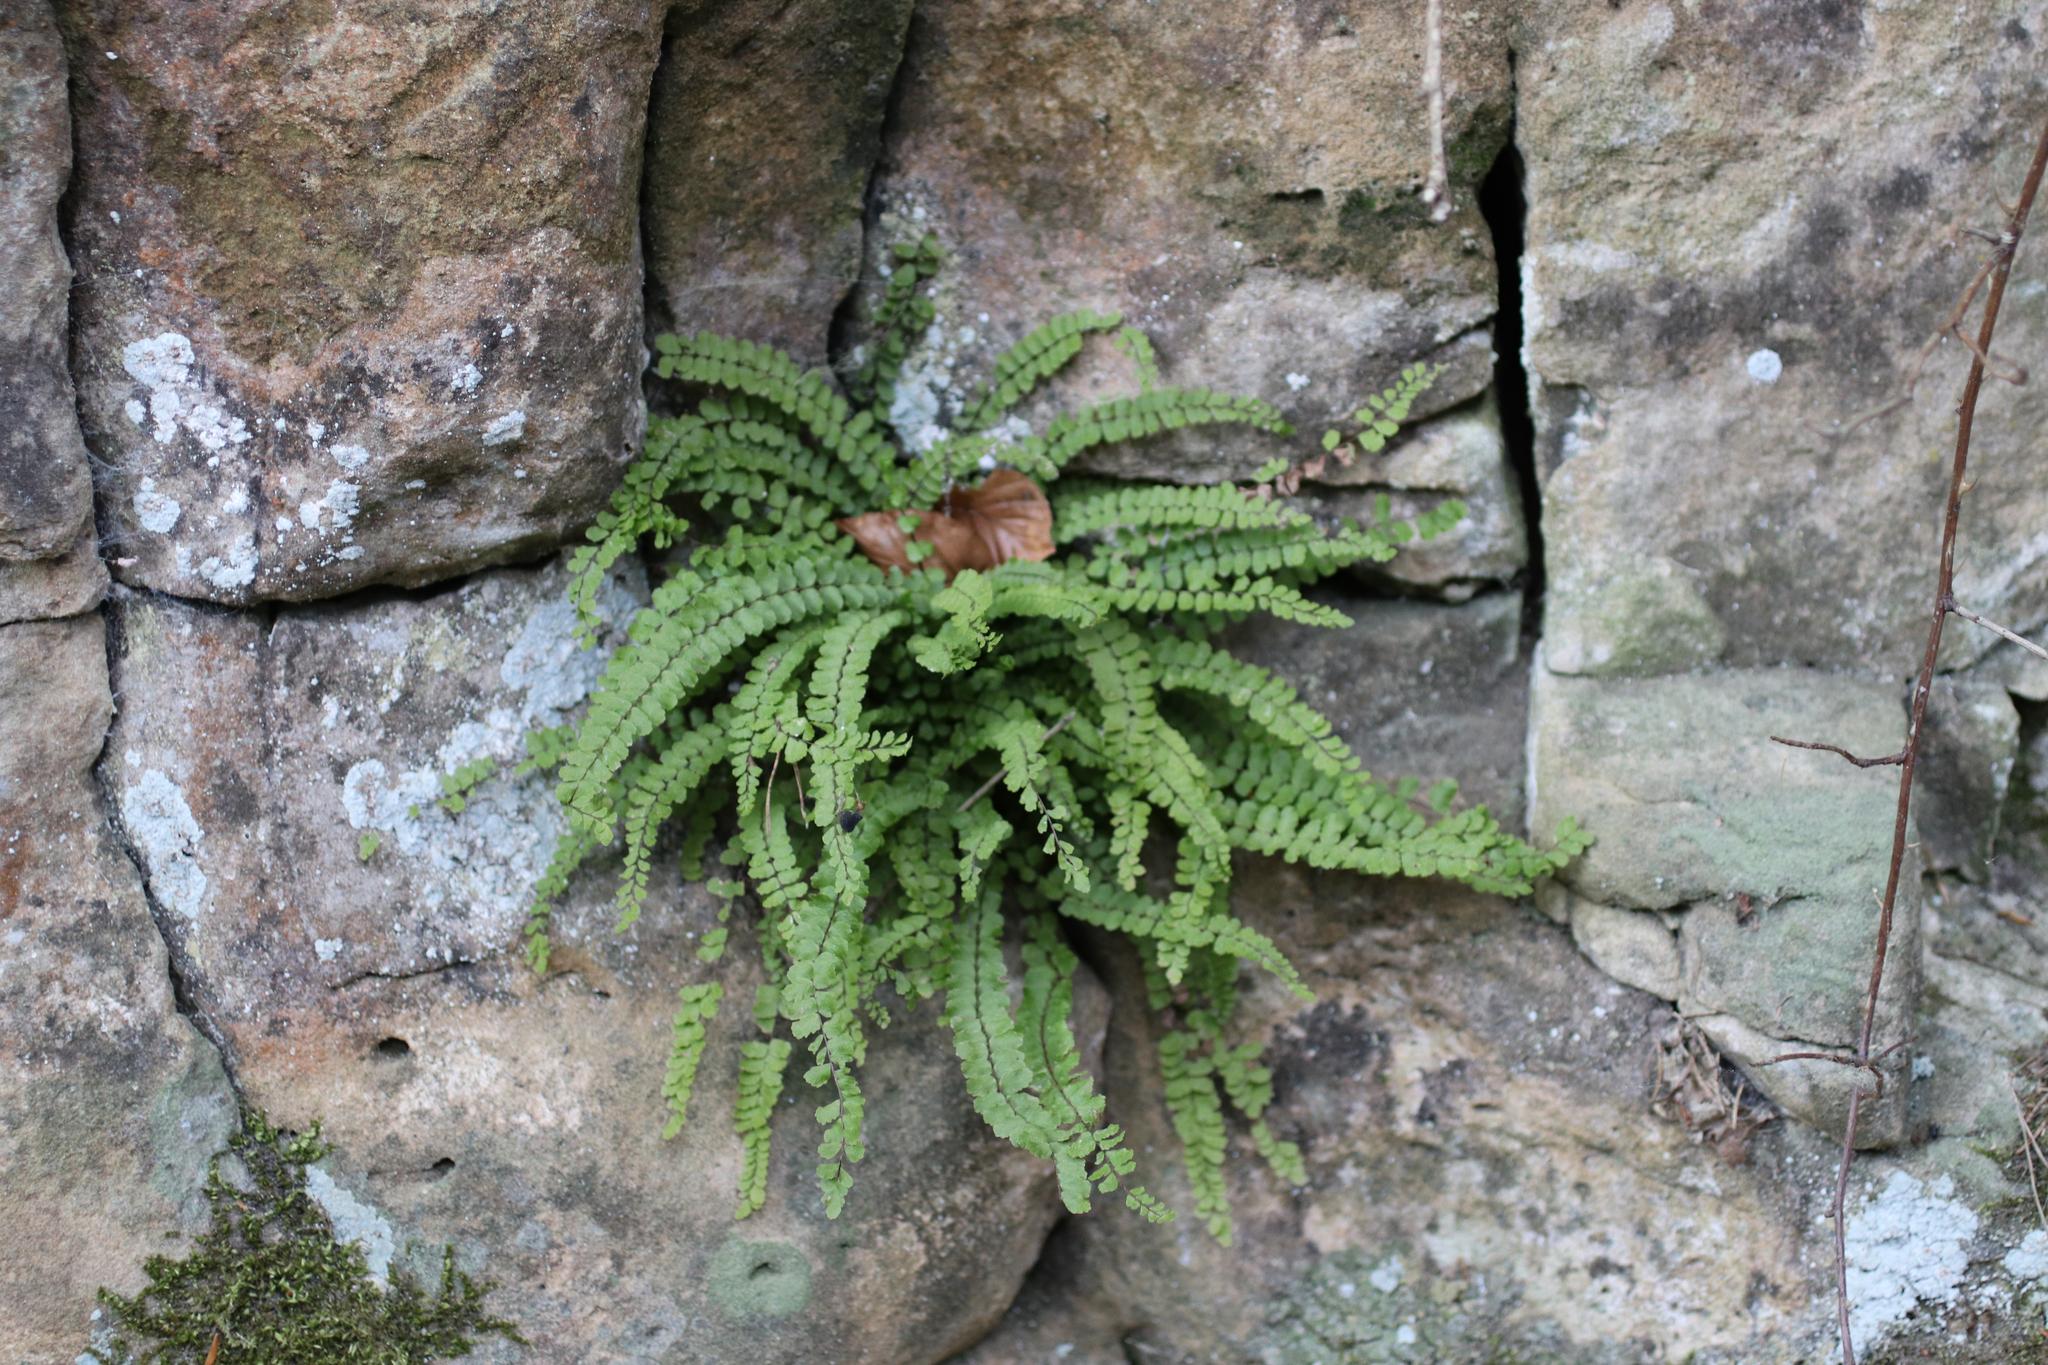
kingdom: Plantae
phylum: Tracheophyta
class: Polypodiopsida
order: Polypodiales
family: Aspleniaceae
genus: Asplenium
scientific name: Asplenium trichomanes
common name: Maidenhair spleenwort
